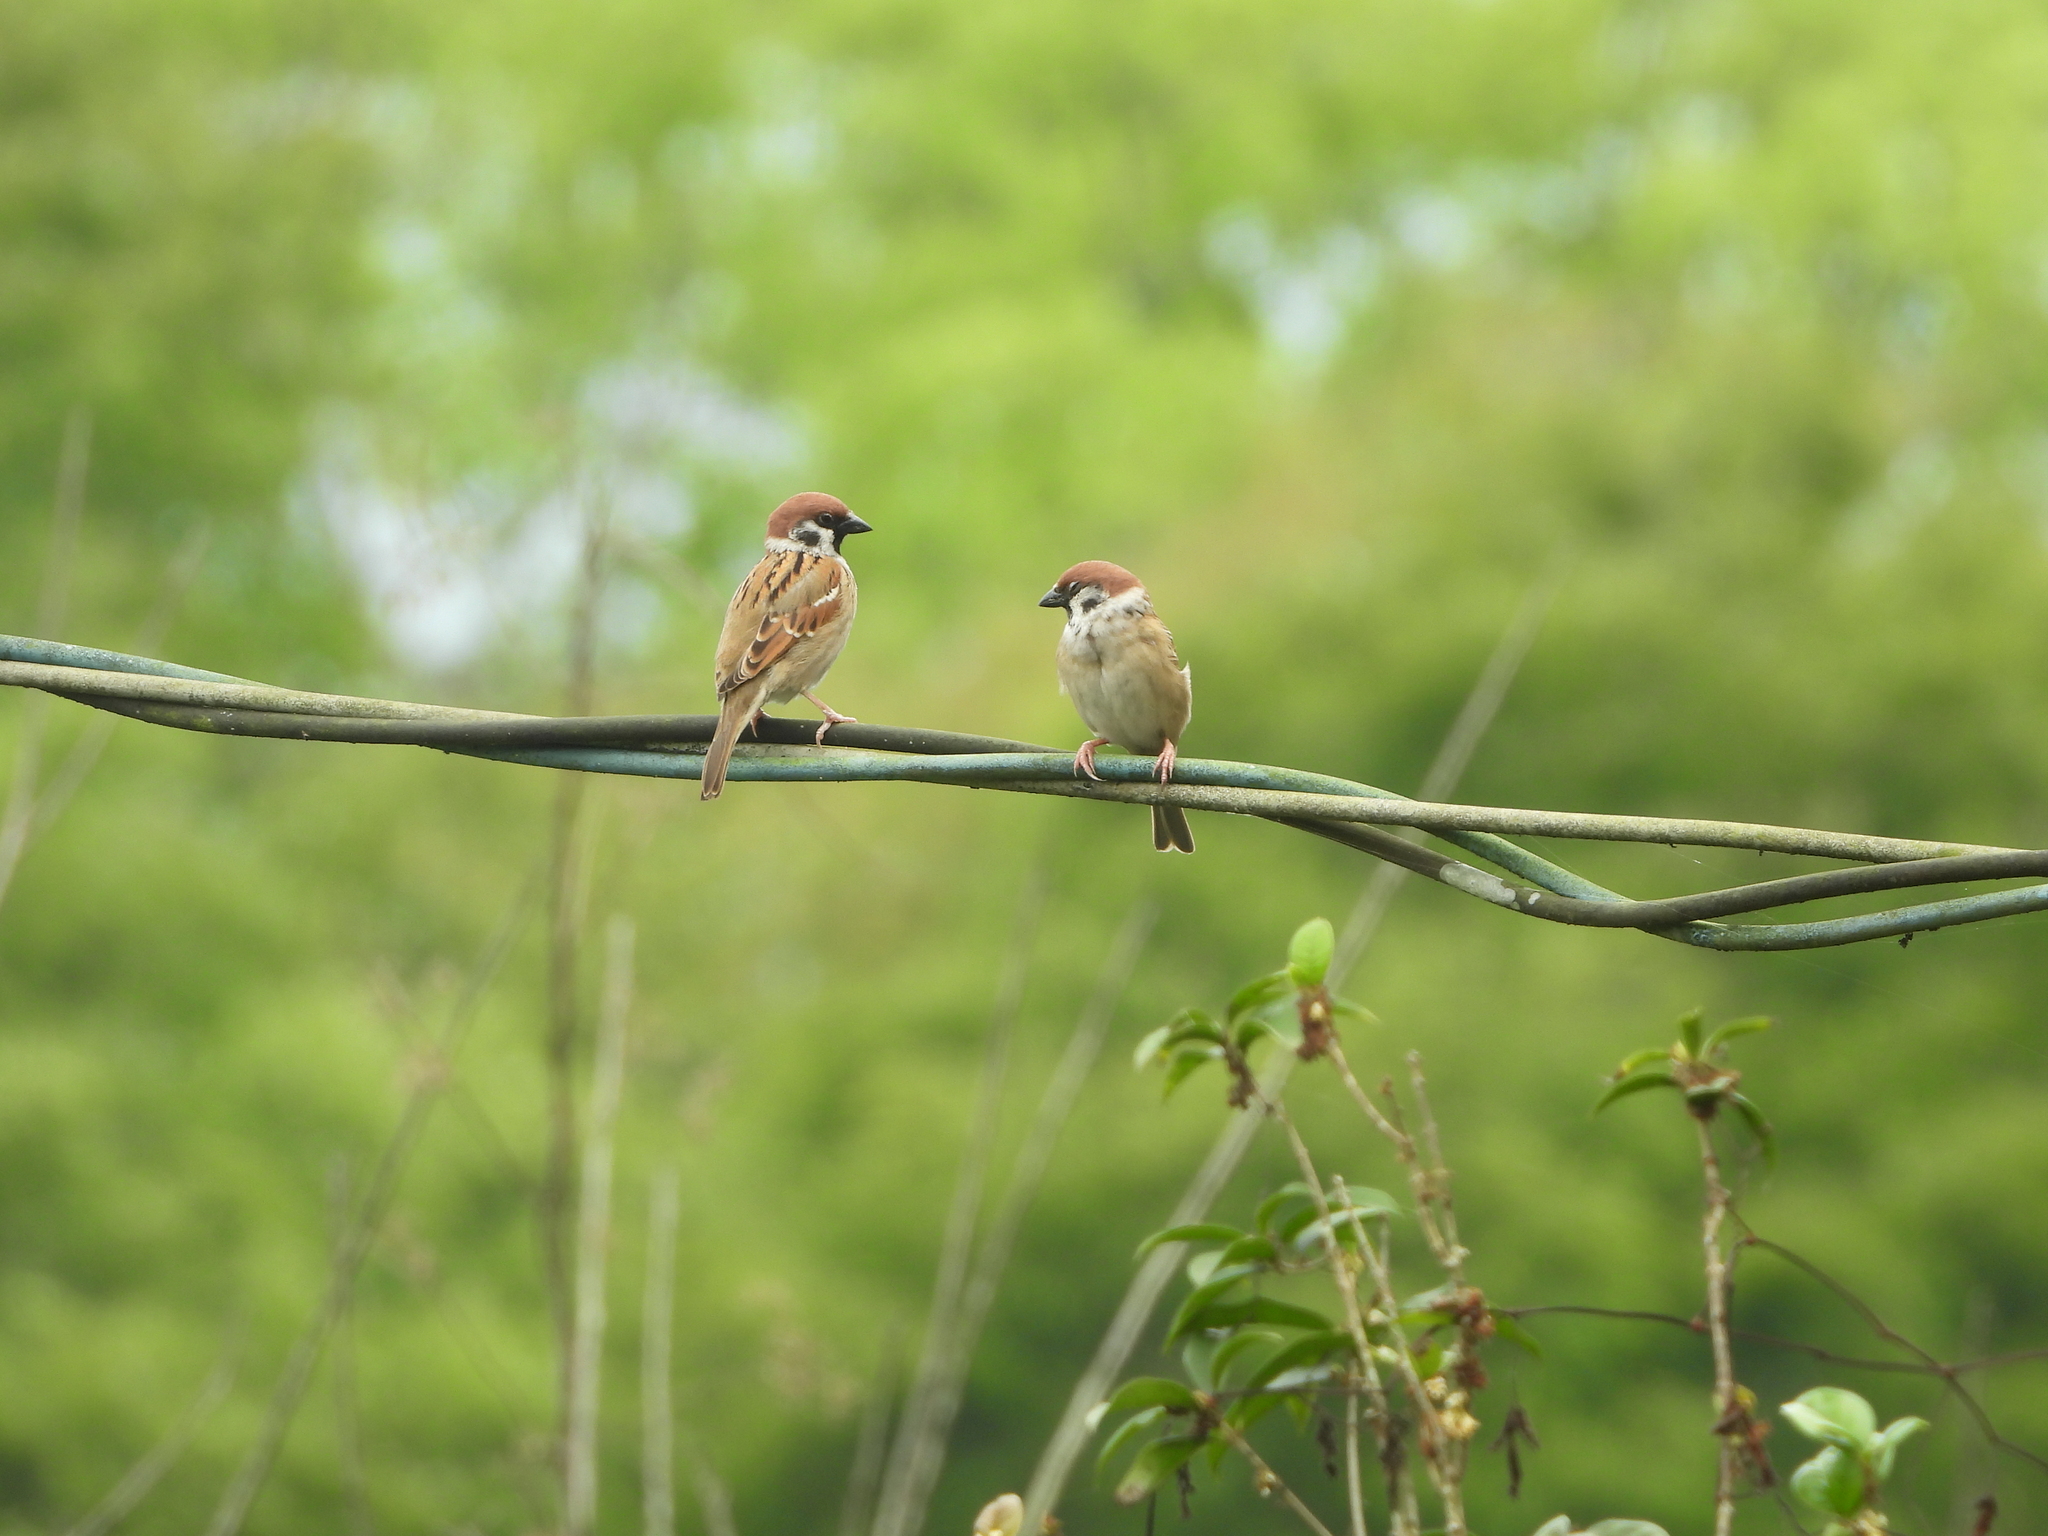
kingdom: Animalia
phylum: Chordata
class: Aves
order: Passeriformes
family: Passeridae
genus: Passer
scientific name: Passer montanus
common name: Eurasian tree sparrow
